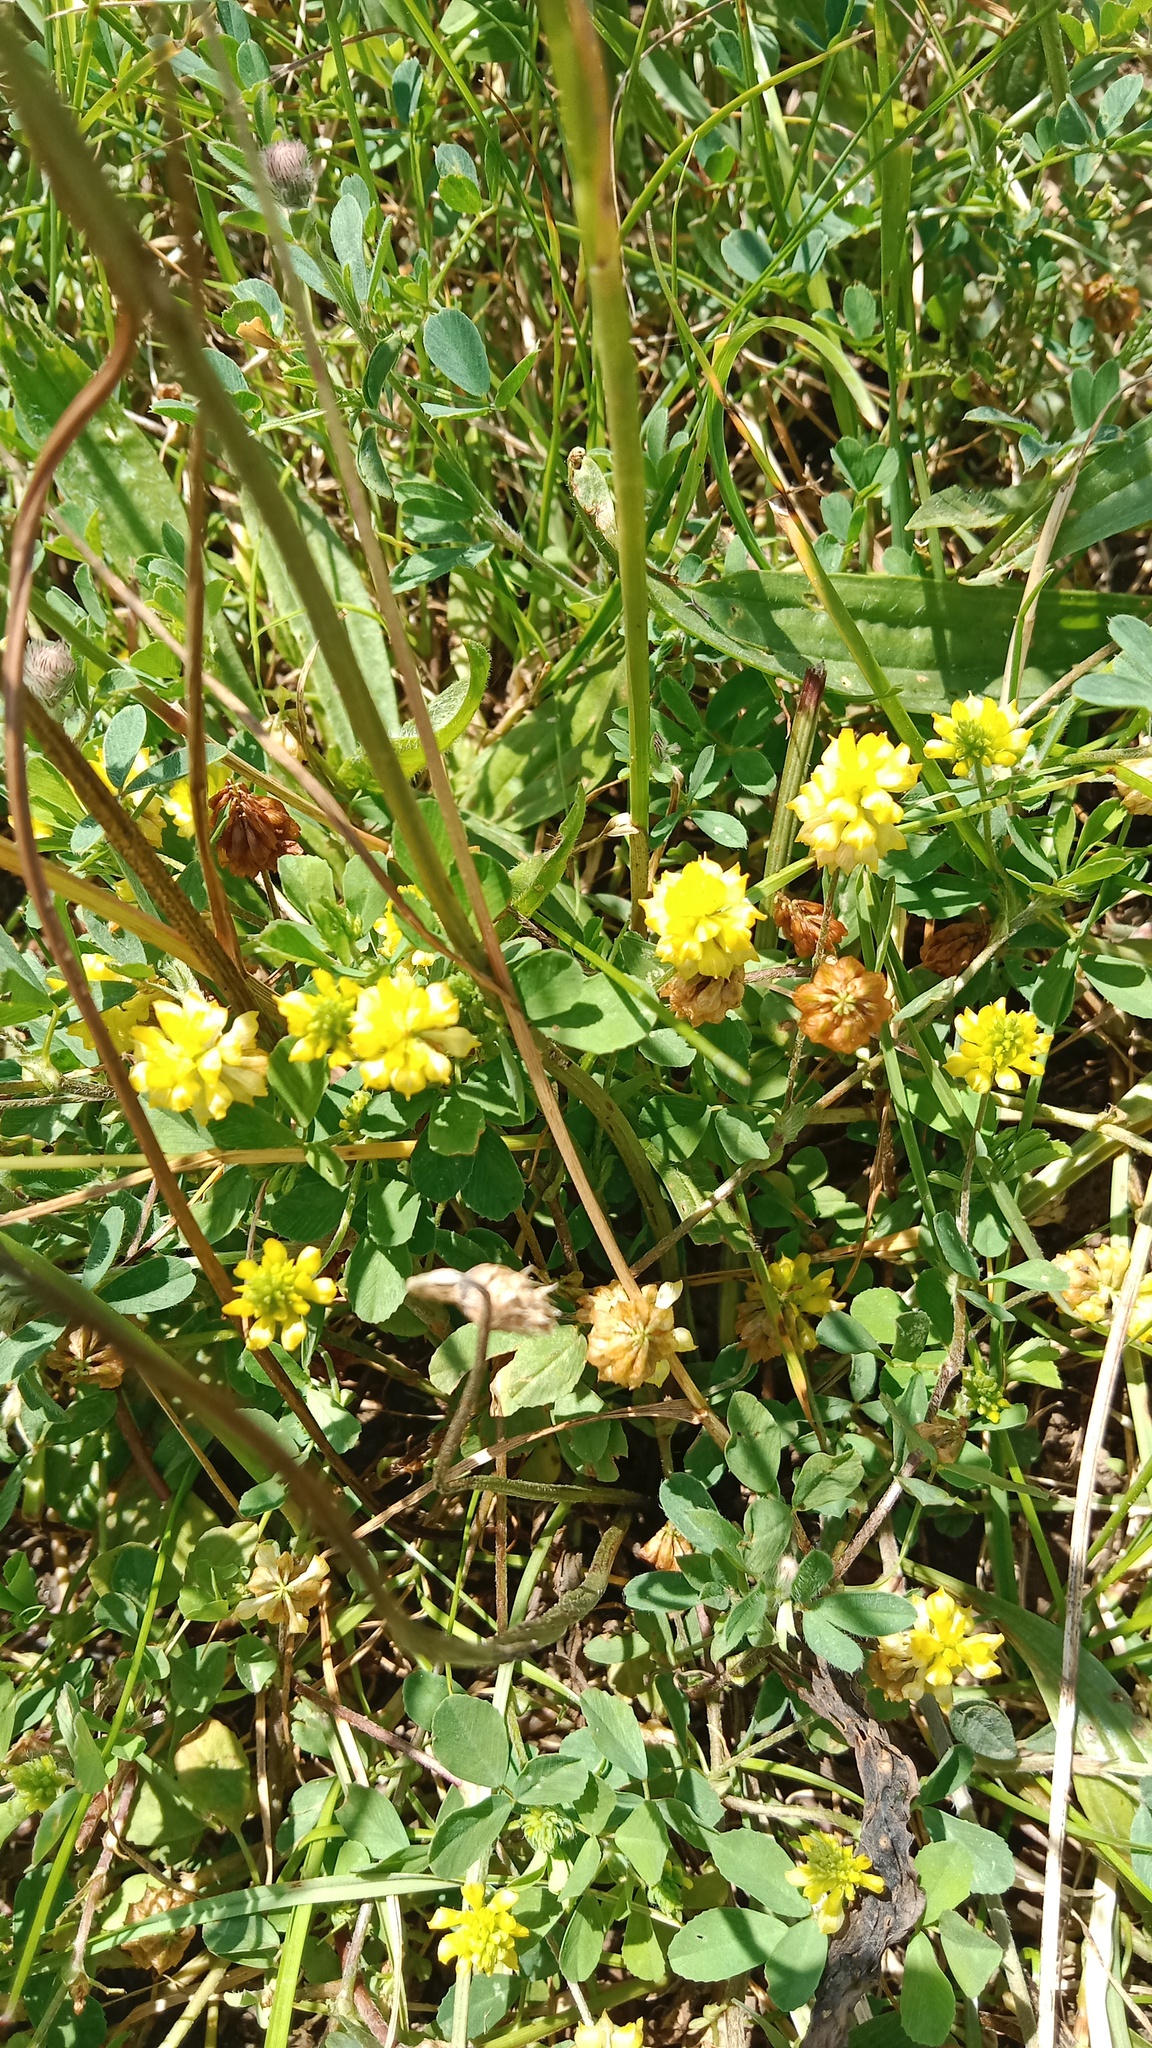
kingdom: Plantae
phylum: Tracheophyta
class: Magnoliopsida
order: Fabales
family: Fabaceae
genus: Trifolium
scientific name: Trifolium campestre
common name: Field clover
